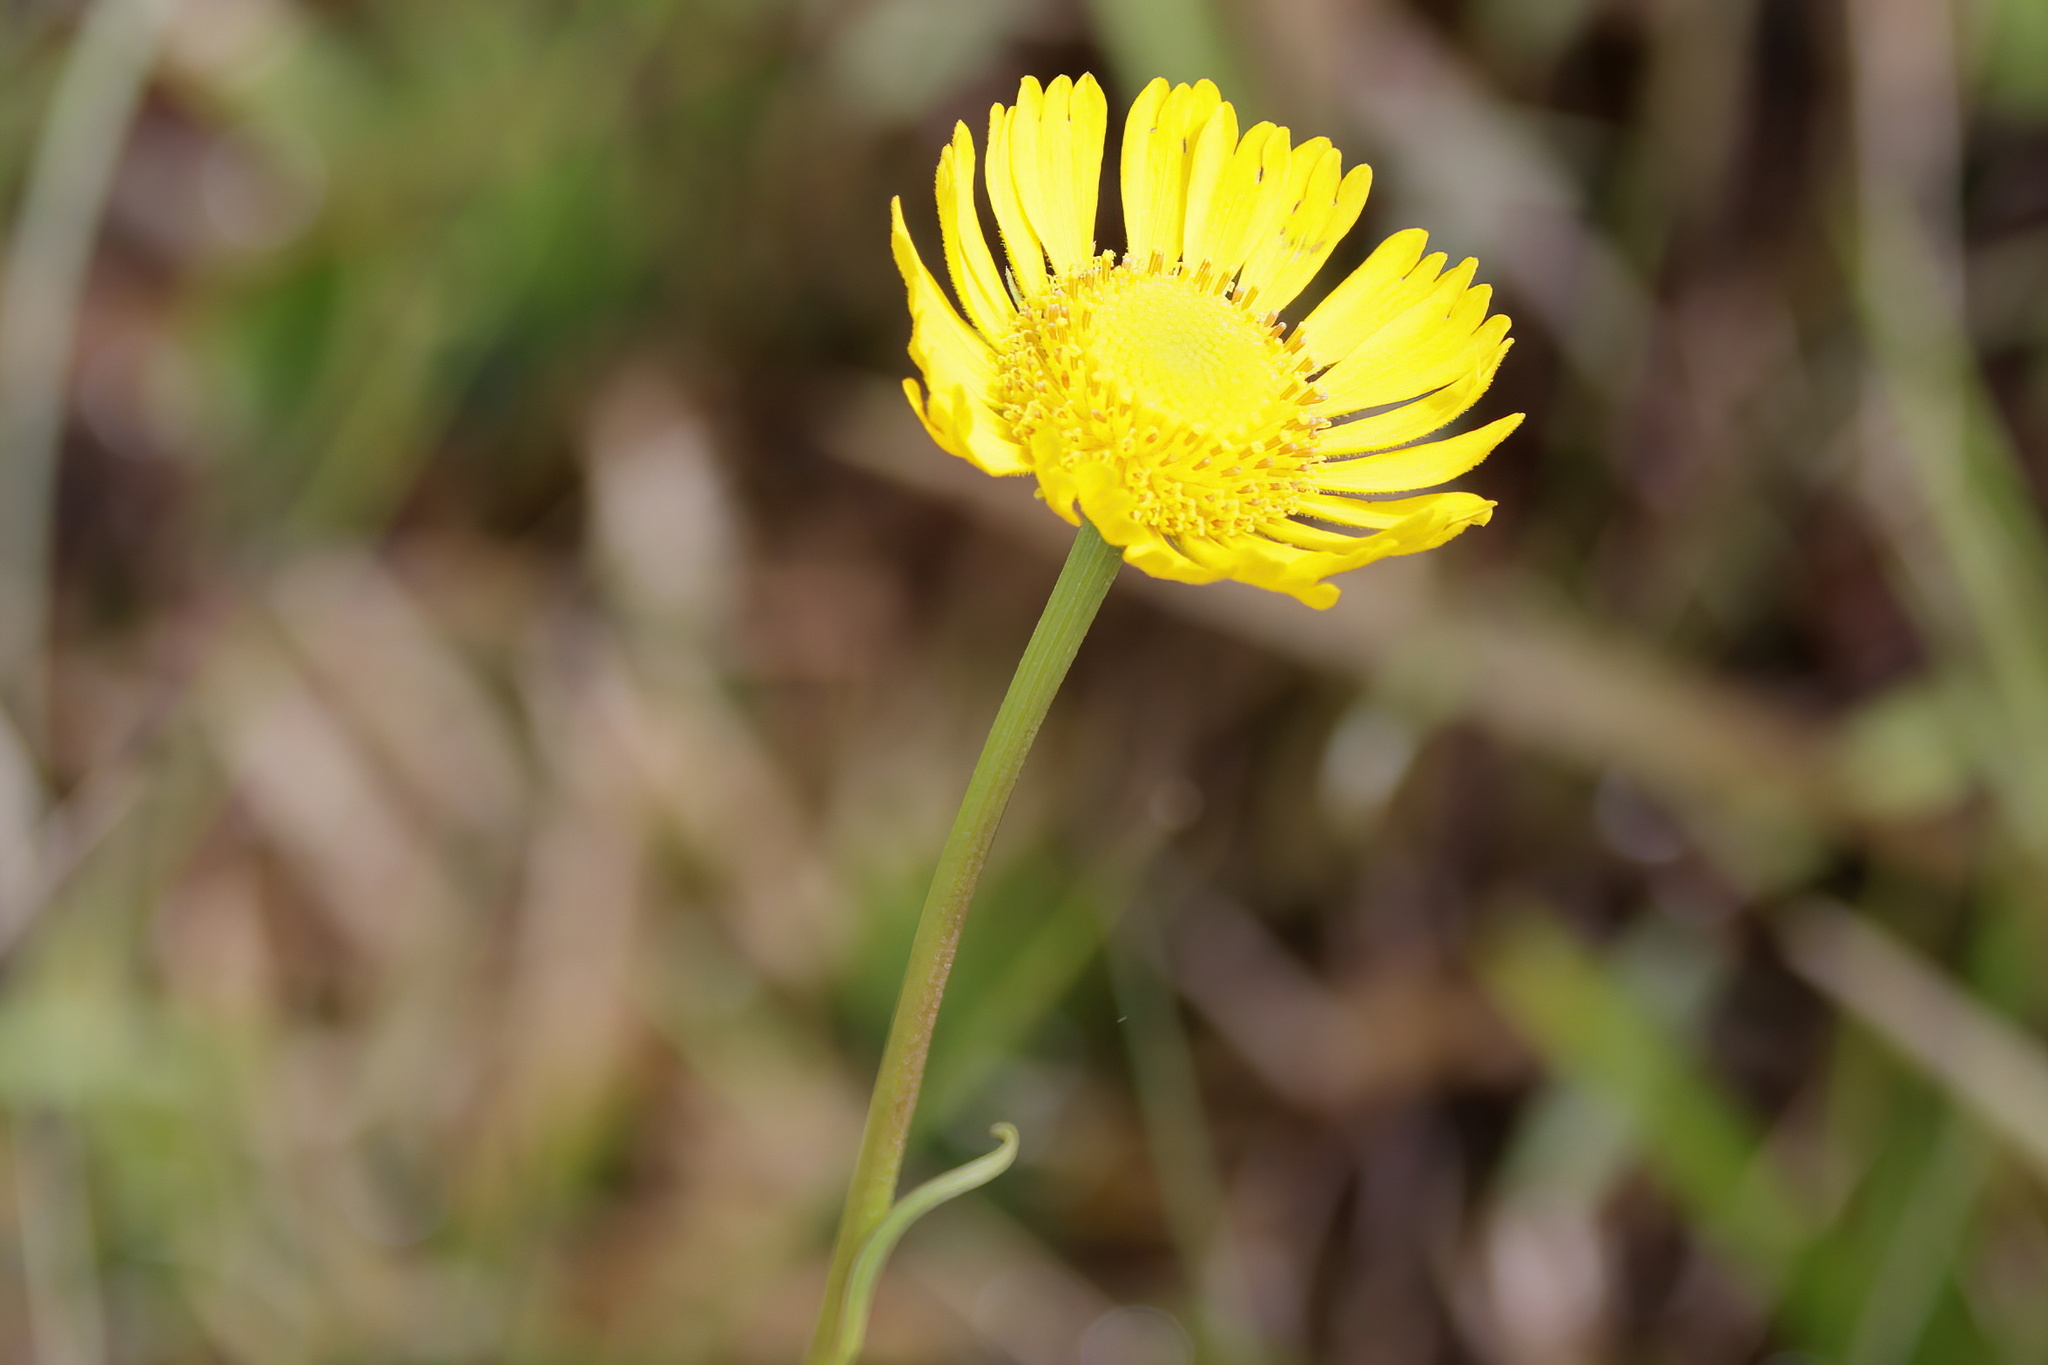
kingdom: Plantae
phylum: Tracheophyta
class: Magnoliopsida
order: Asterales
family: Asteraceae
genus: Helenium
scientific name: Helenium vernale
